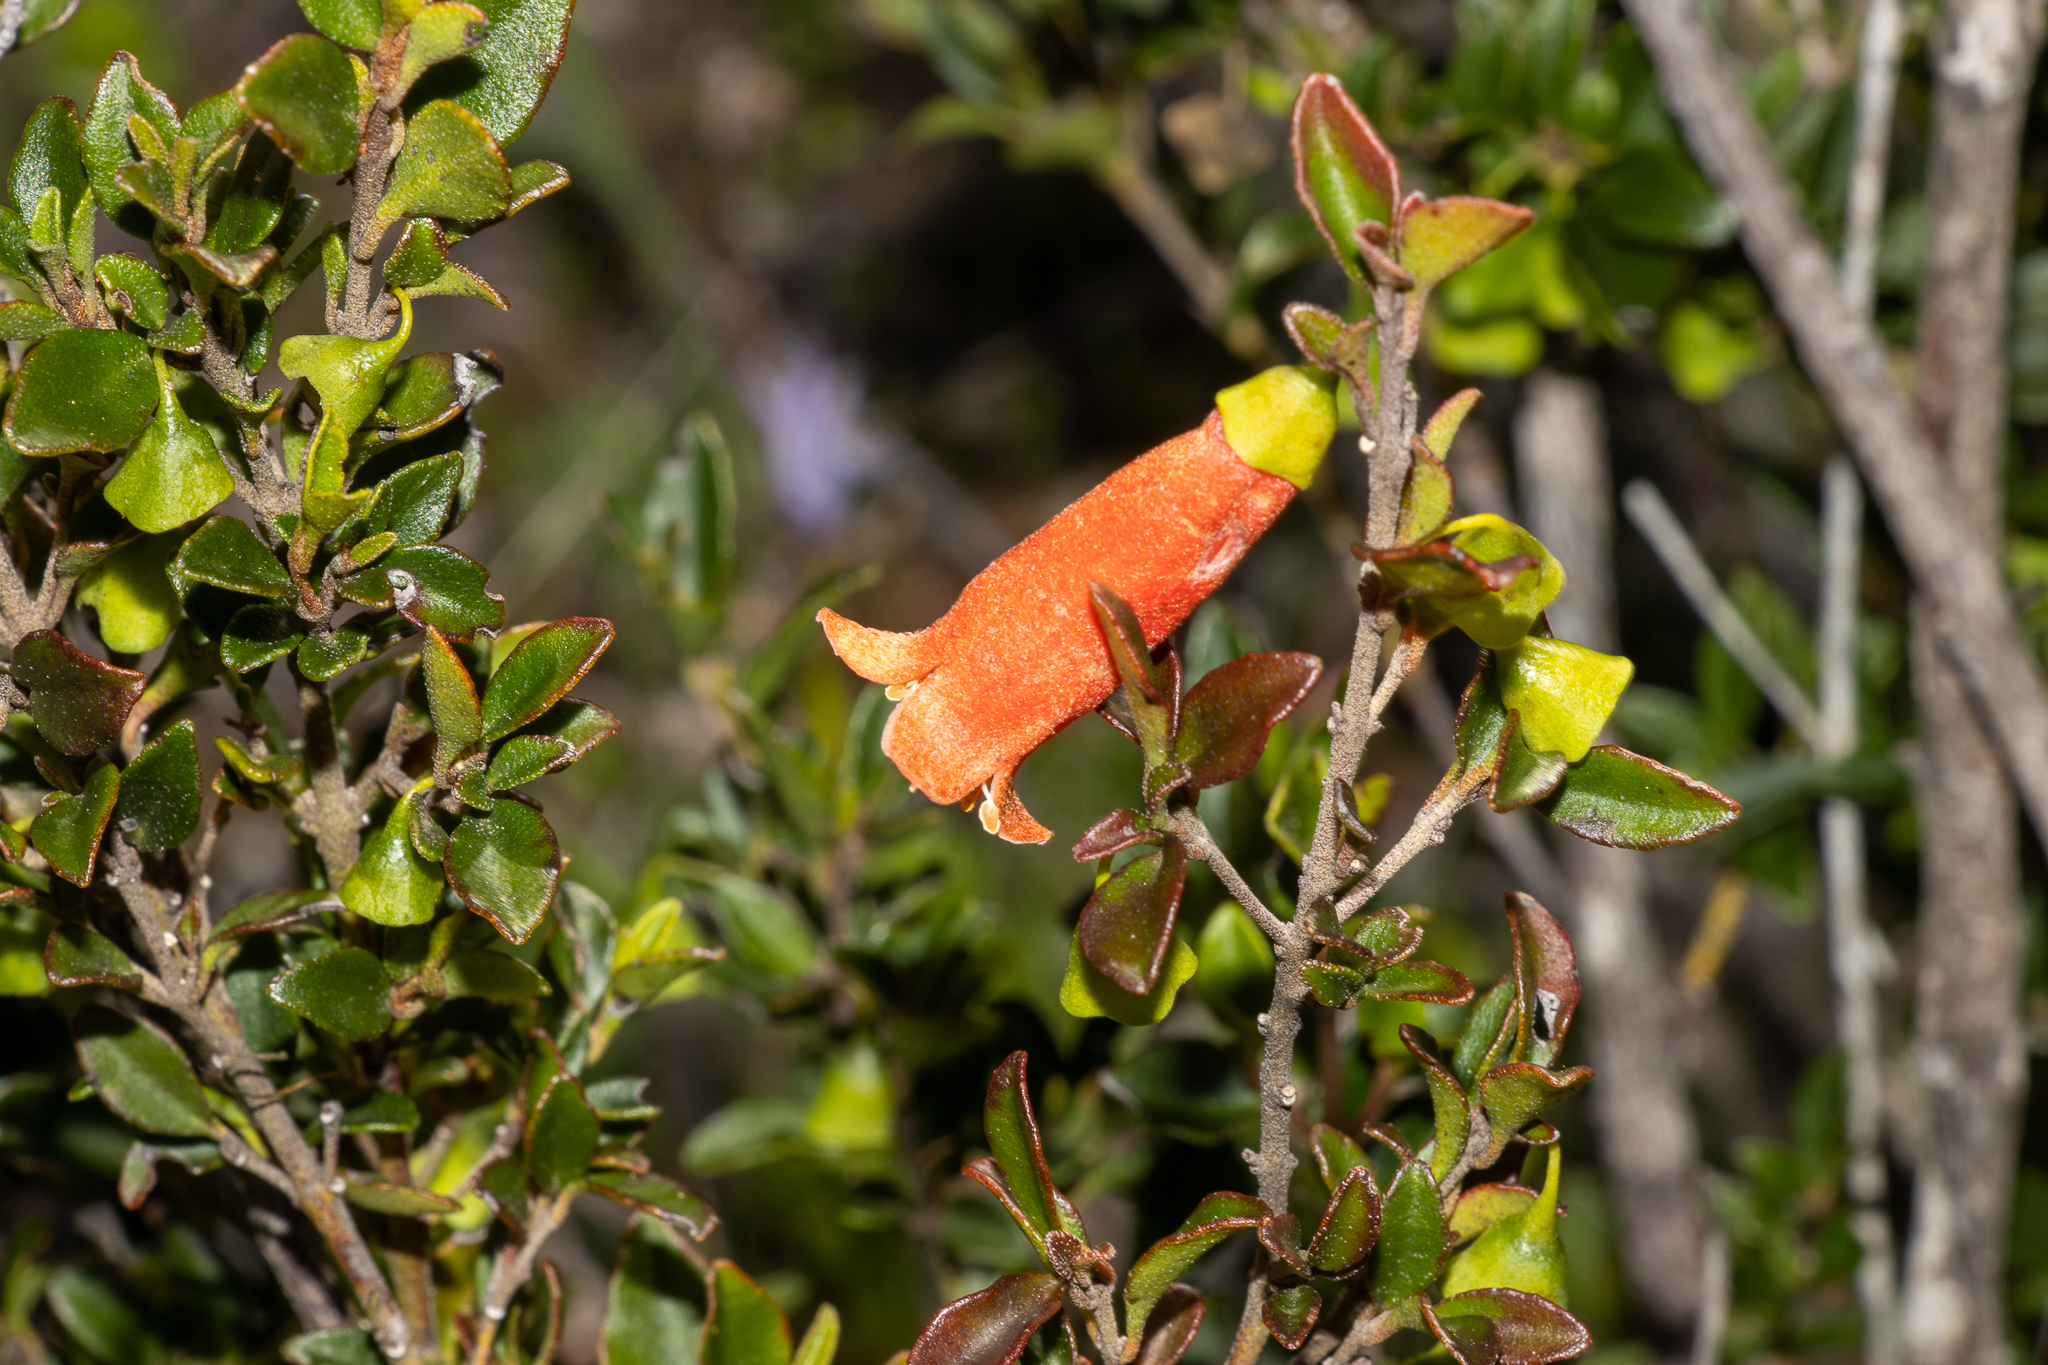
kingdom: Plantae
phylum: Tracheophyta
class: Magnoliopsida
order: Sapindales
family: Rutaceae
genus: Correa
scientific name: Correa pulchella
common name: Salmon correa
